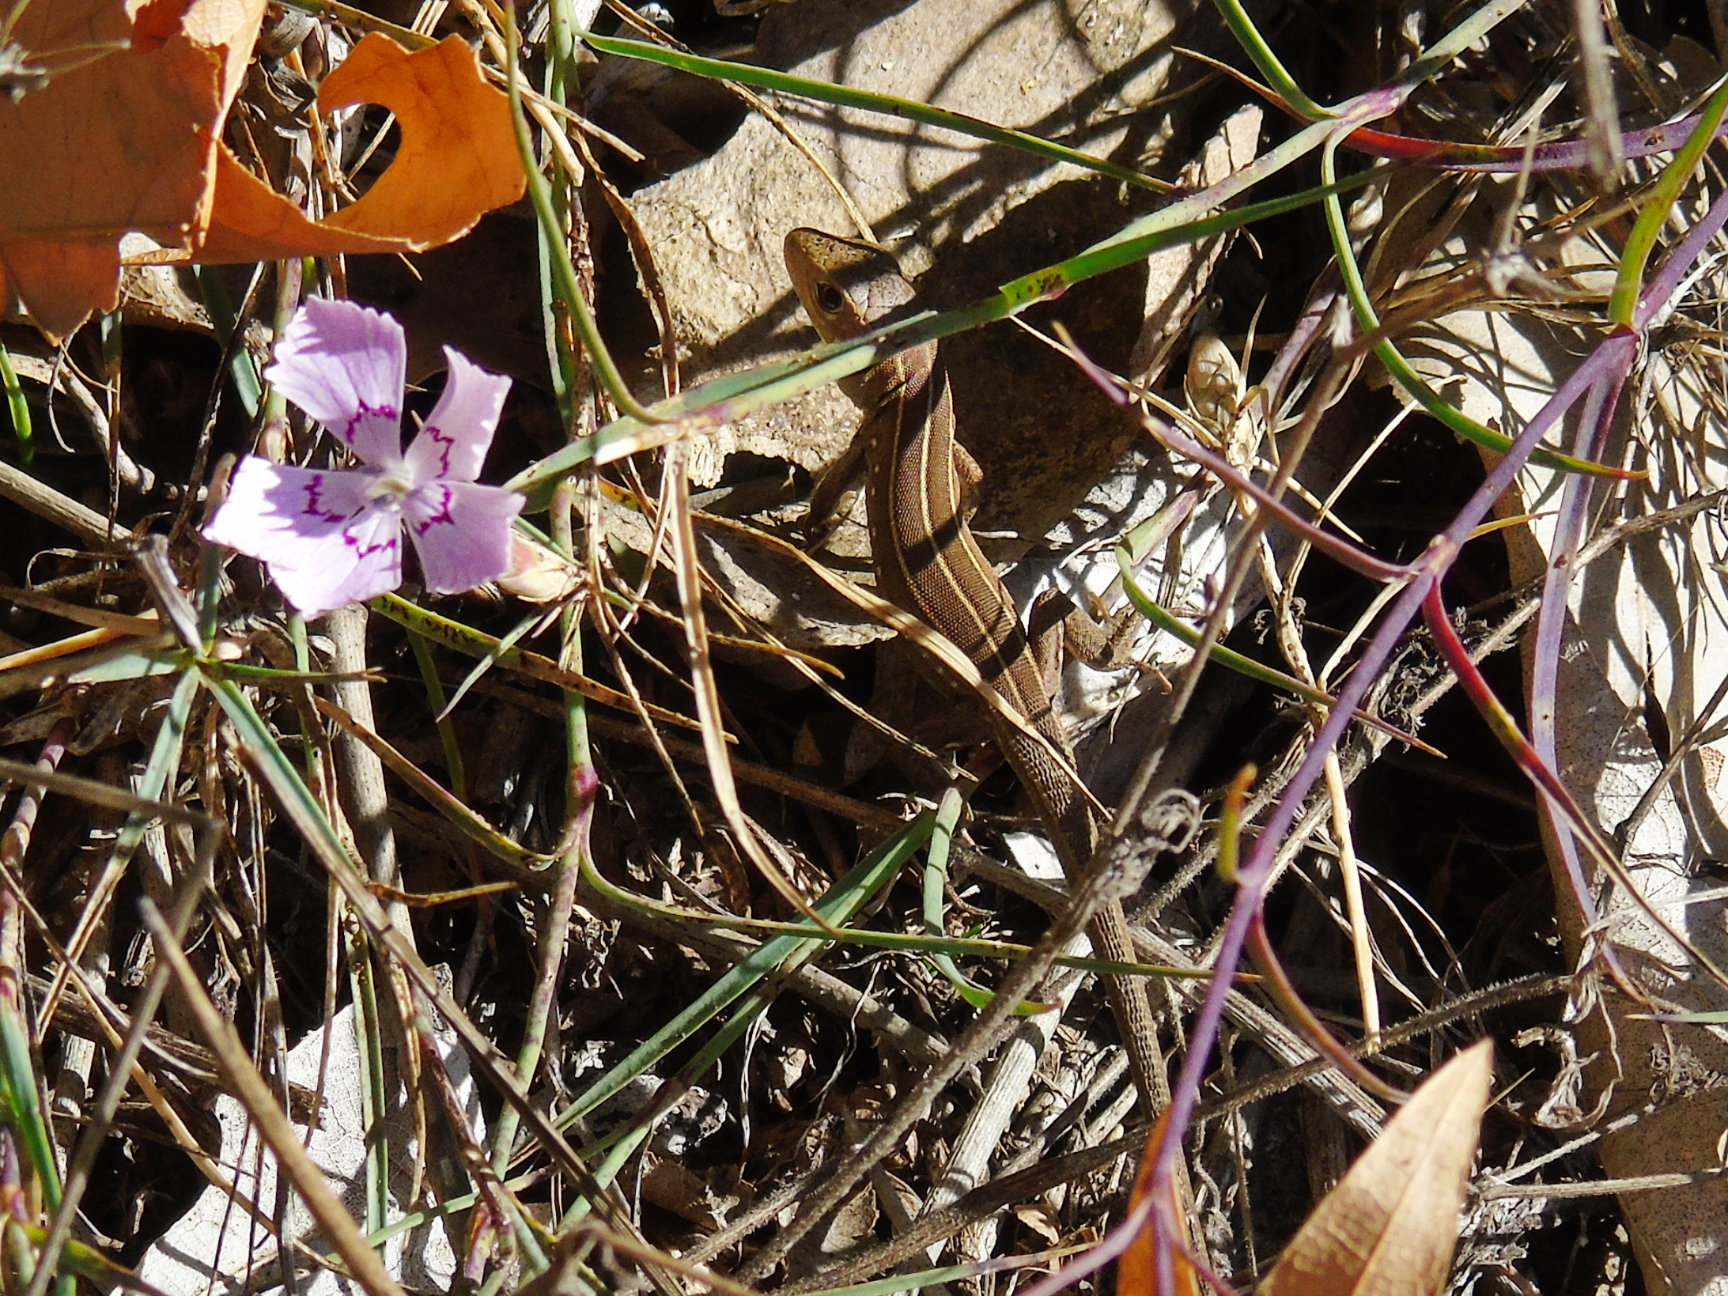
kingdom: Animalia
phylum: Chordata
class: Squamata
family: Lacertidae
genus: Lacerta
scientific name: Lacerta trilineata
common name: Balkan green lizard
